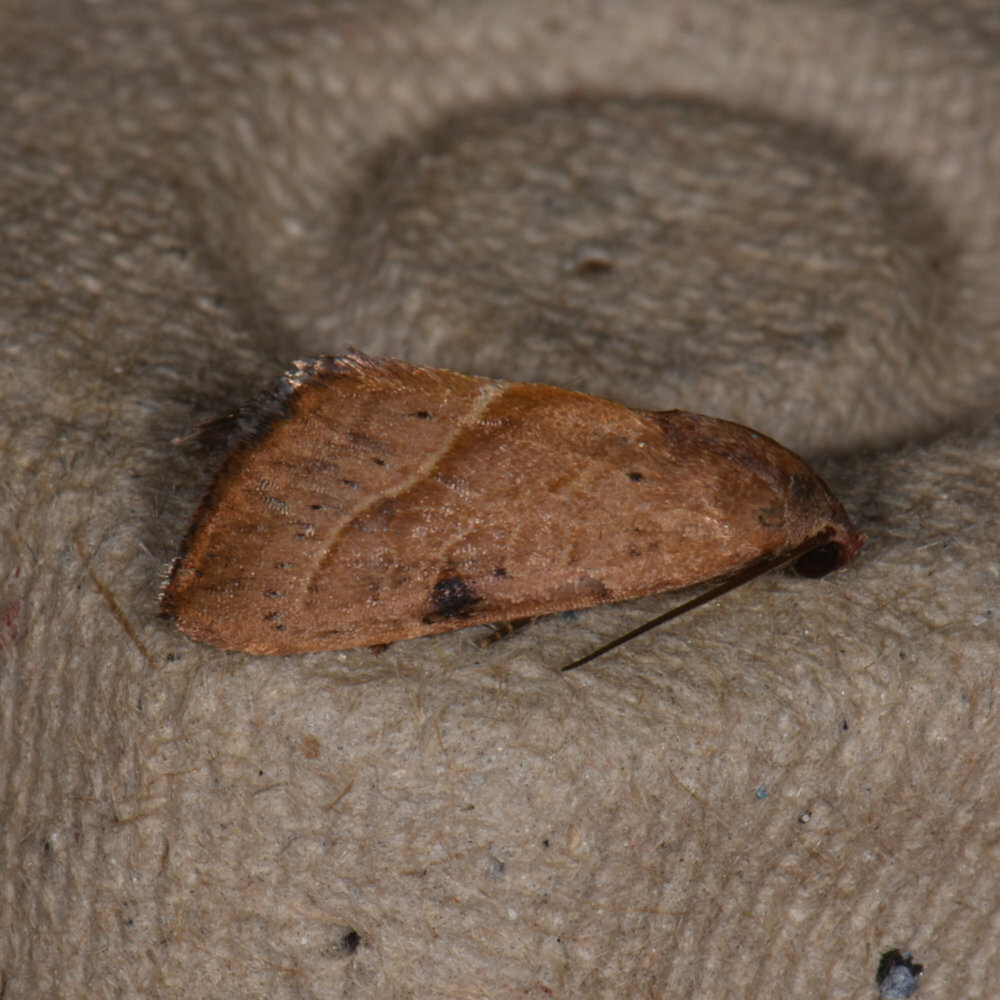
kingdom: Animalia
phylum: Arthropoda
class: Insecta
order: Lepidoptera
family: Noctuidae
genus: Galgula
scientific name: Galgula partita
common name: Wedgeling
